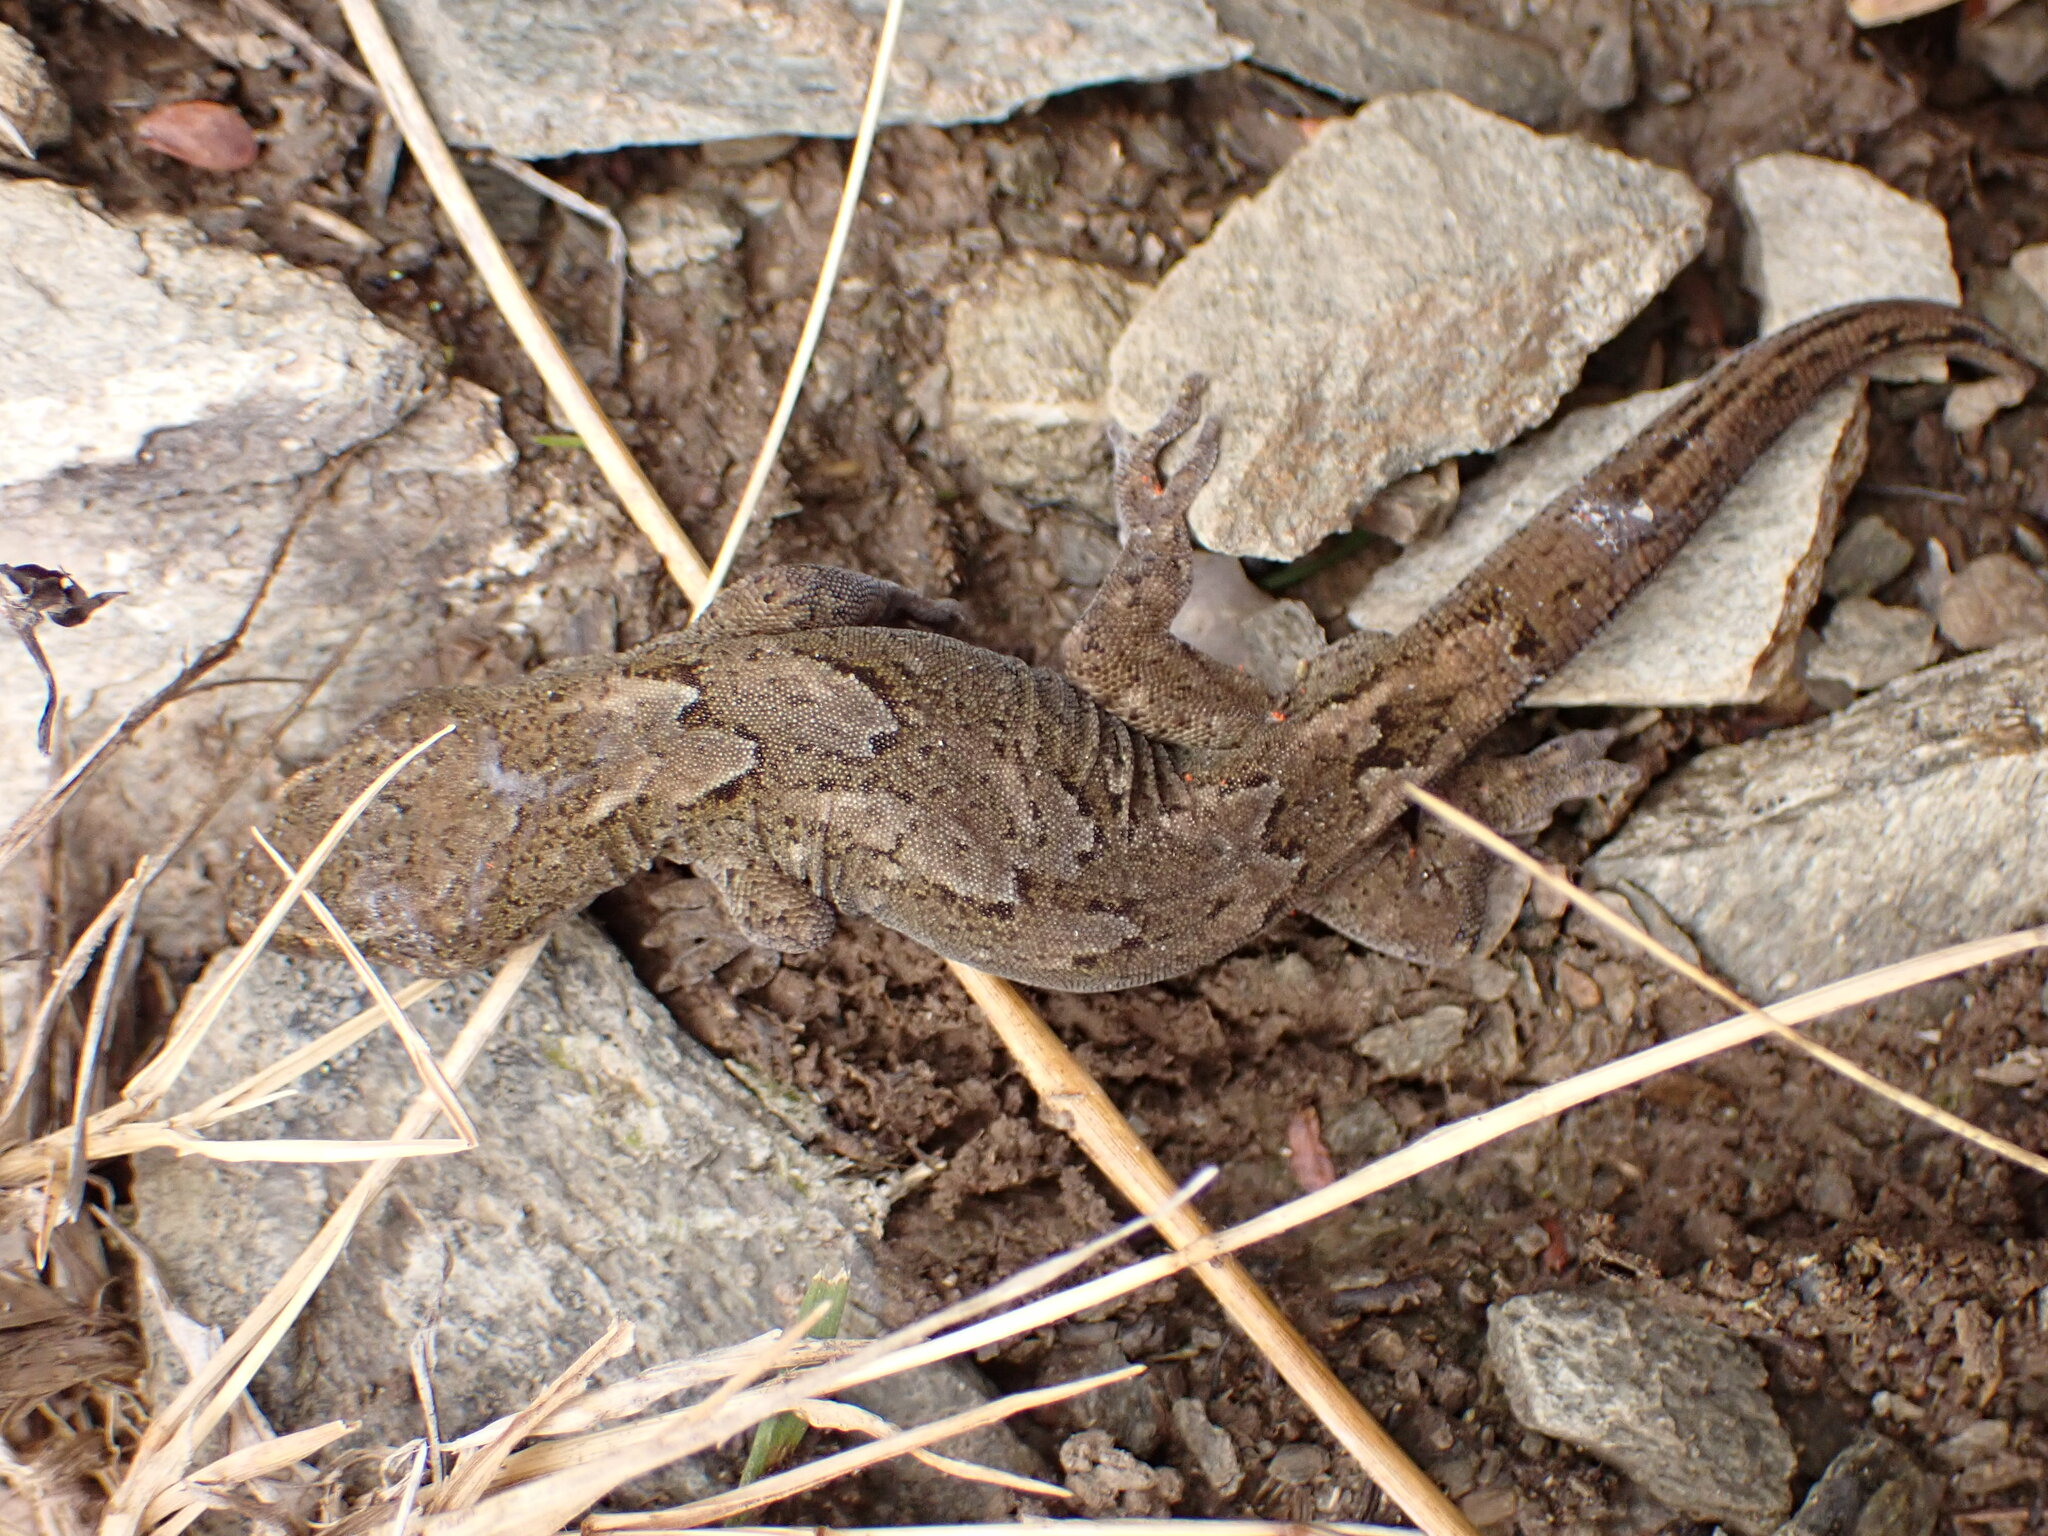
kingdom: Animalia
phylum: Chordata
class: Squamata
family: Diplodactylidae
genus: Woodworthia
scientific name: Woodworthia
